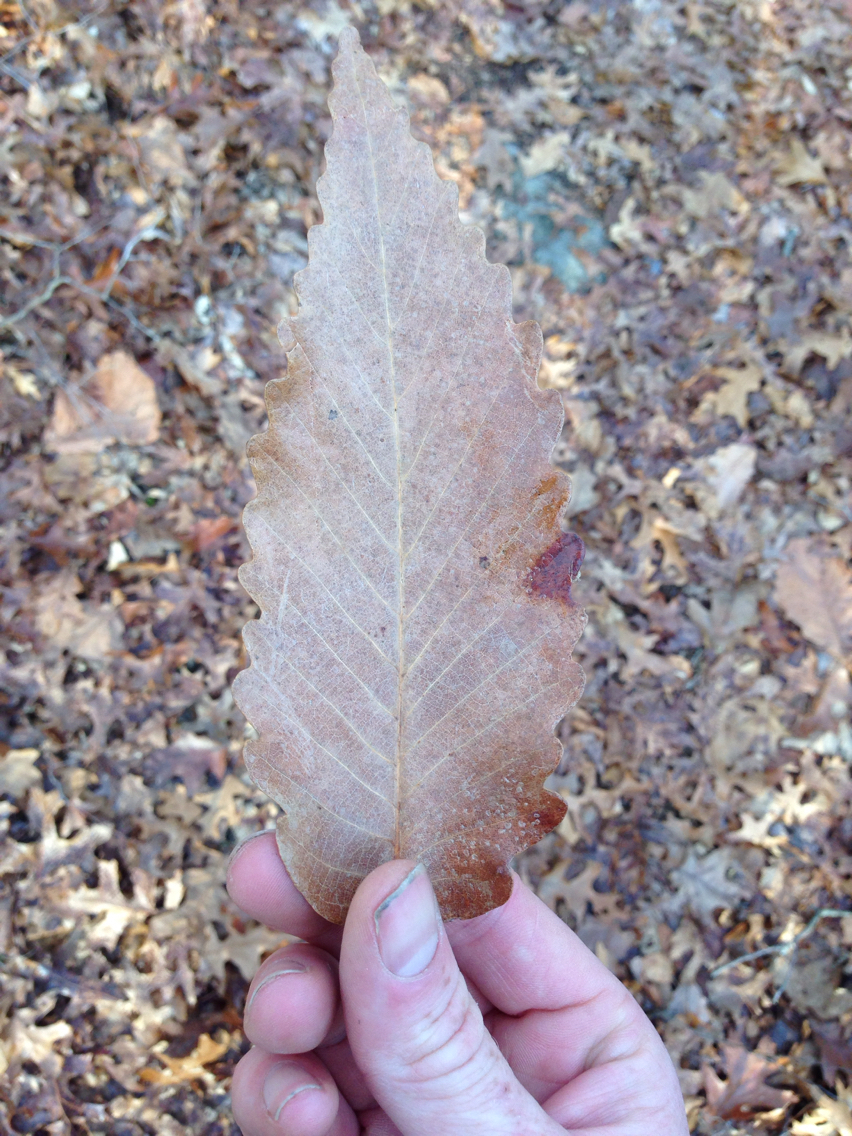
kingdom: Plantae
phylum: Tracheophyta
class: Magnoliopsida
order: Fagales
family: Fagaceae
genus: Quercus
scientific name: Quercus montana
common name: Chestnut oak
